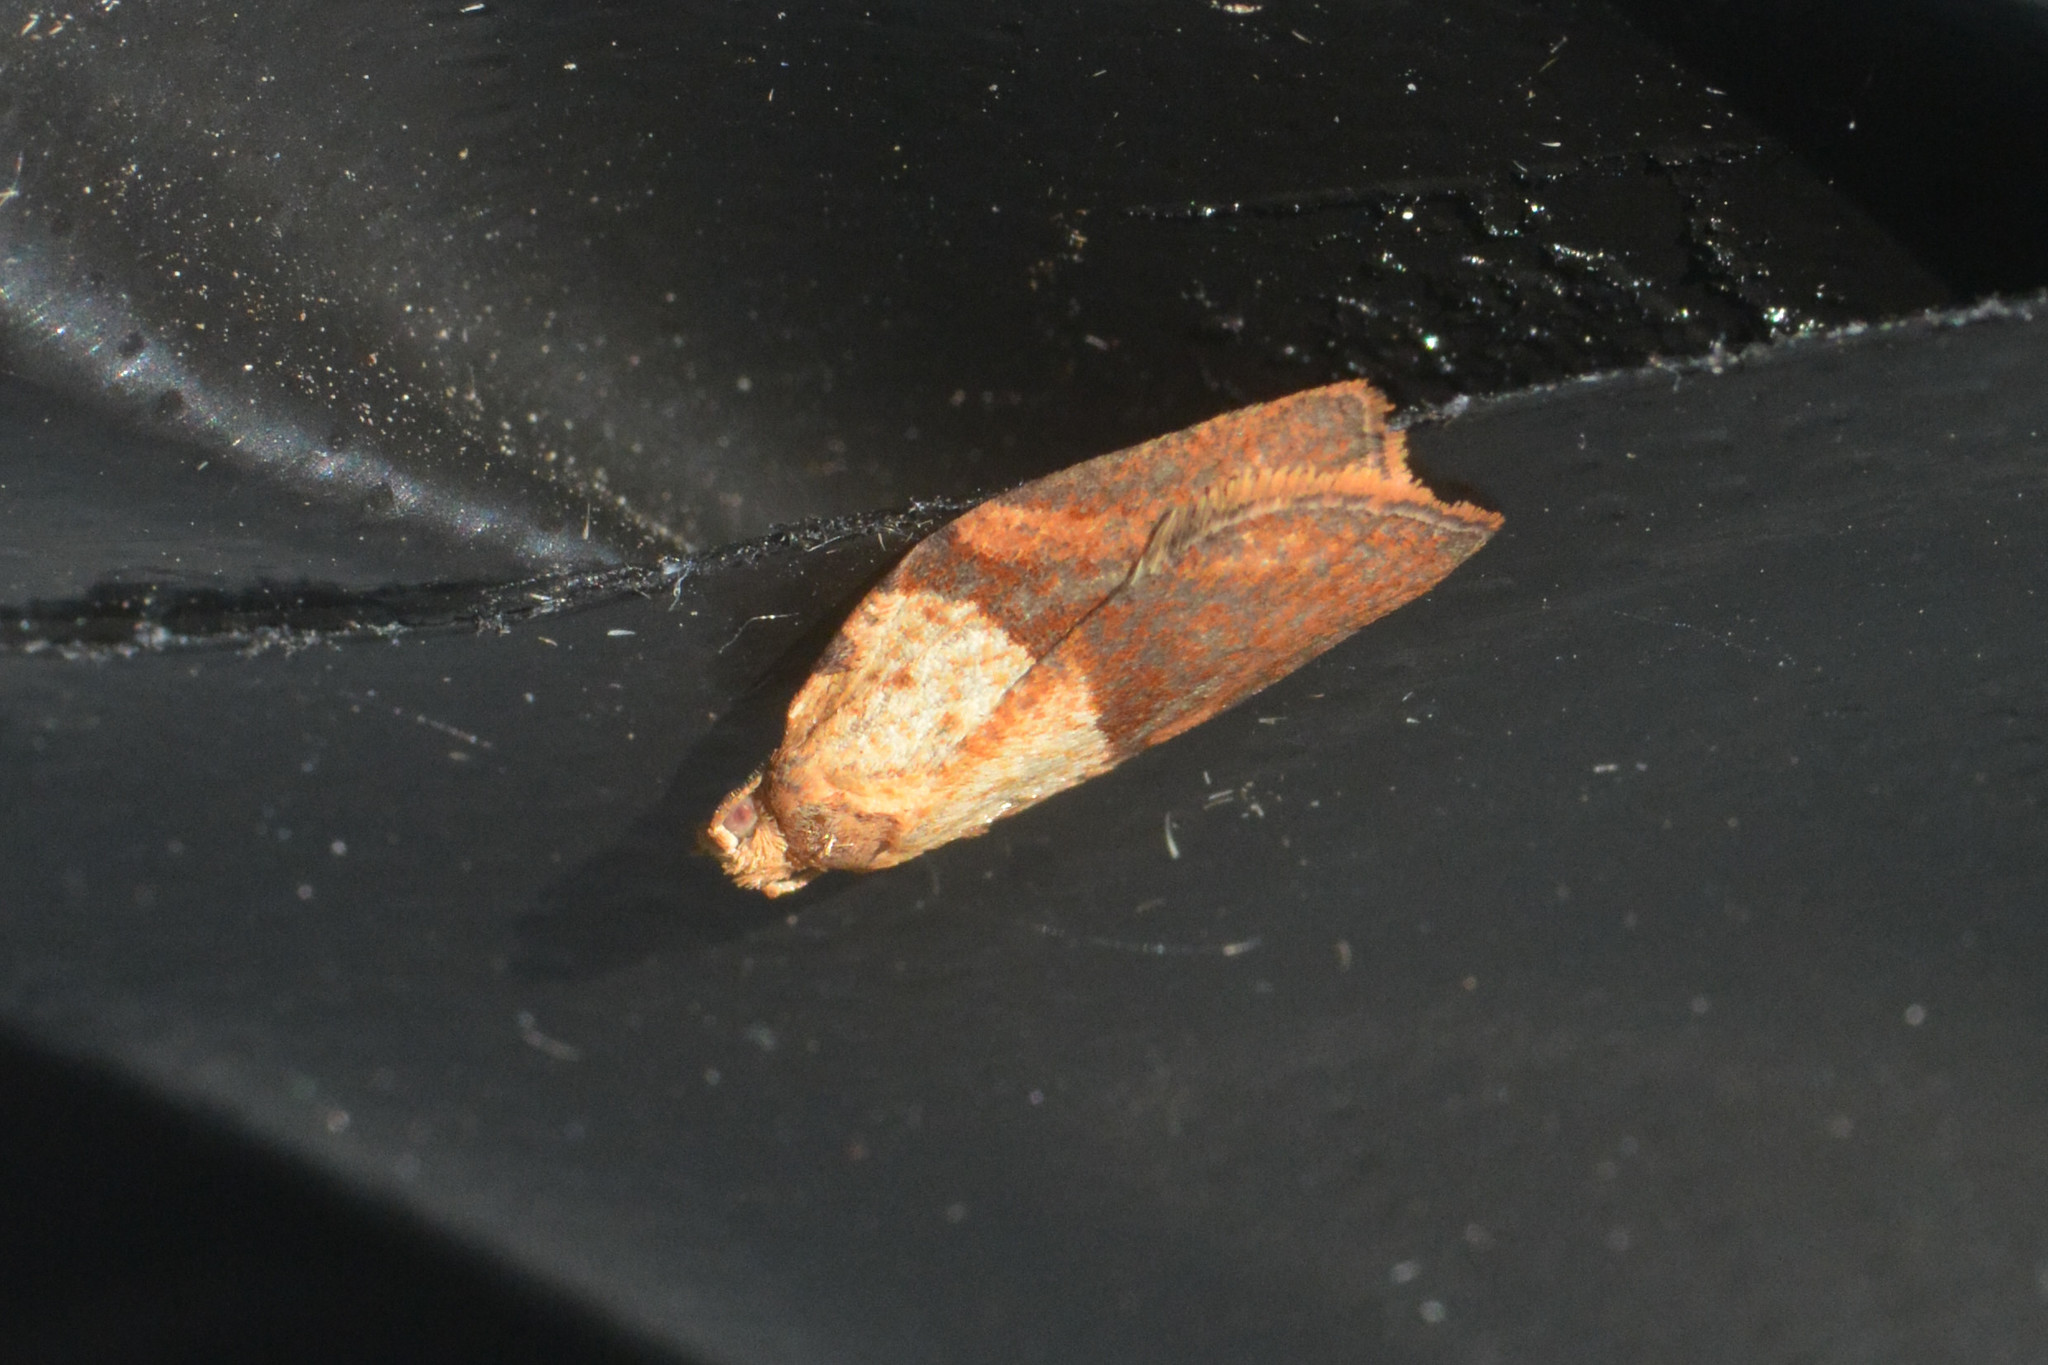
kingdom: Animalia
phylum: Arthropoda
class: Insecta
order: Lepidoptera
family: Tortricidae
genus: Epiphyas
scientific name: Epiphyas postvittana
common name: Light brown apple moth
